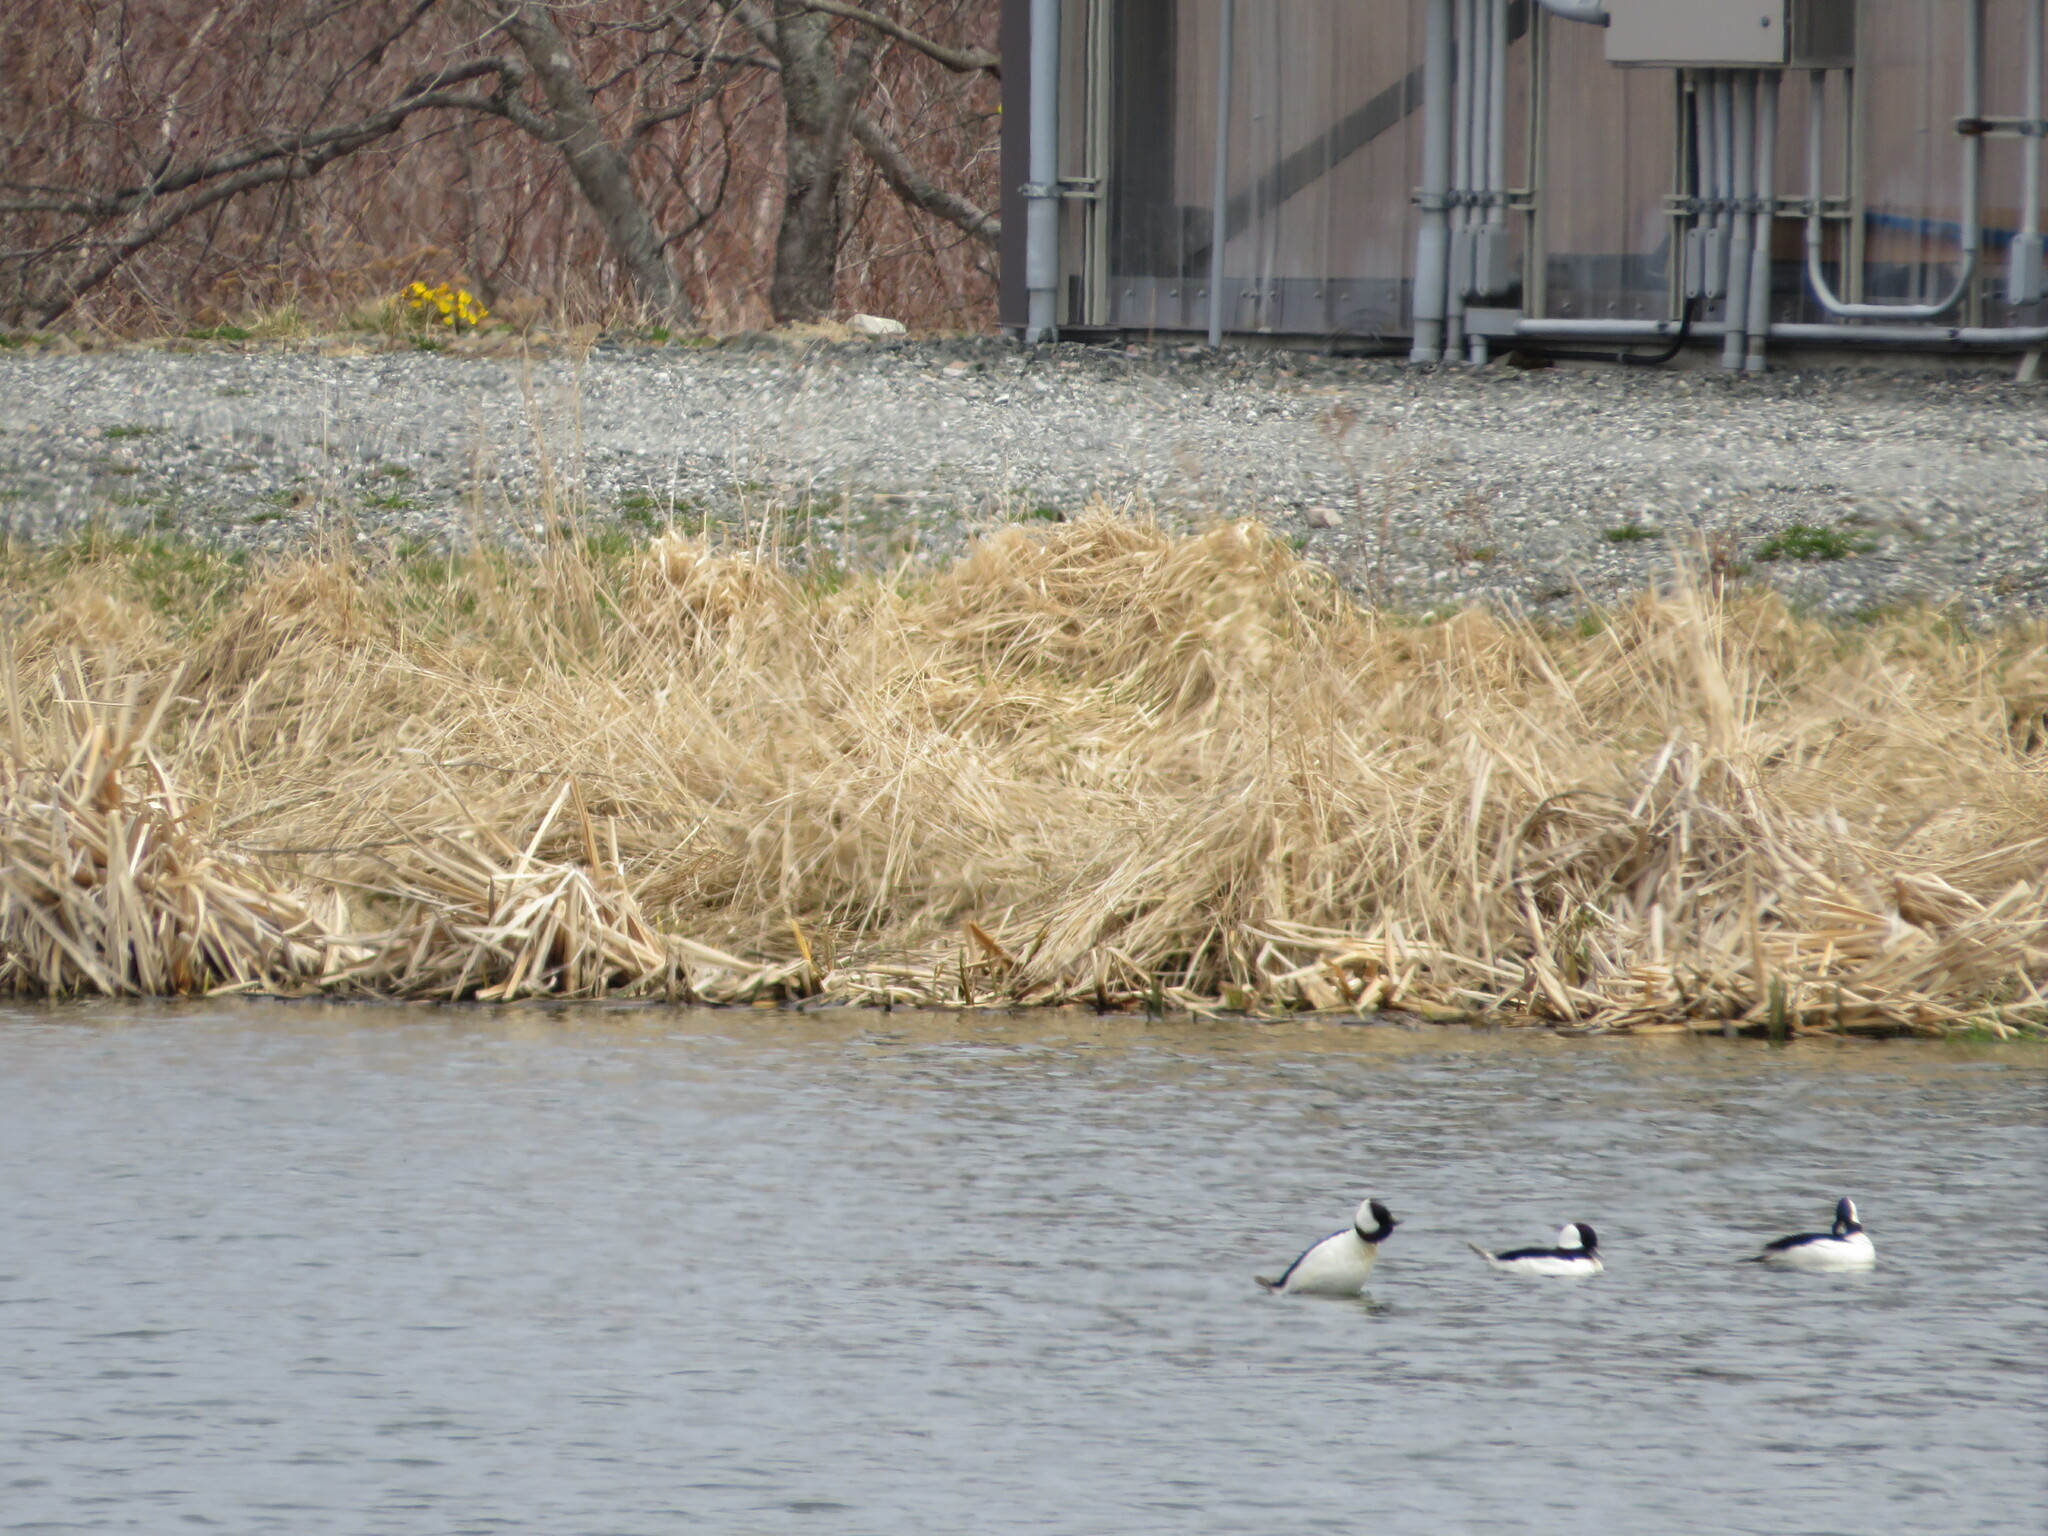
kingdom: Animalia
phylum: Chordata
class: Aves
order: Anseriformes
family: Anatidae
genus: Bucephala
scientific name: Bucephala albeola
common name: Bufflehead
